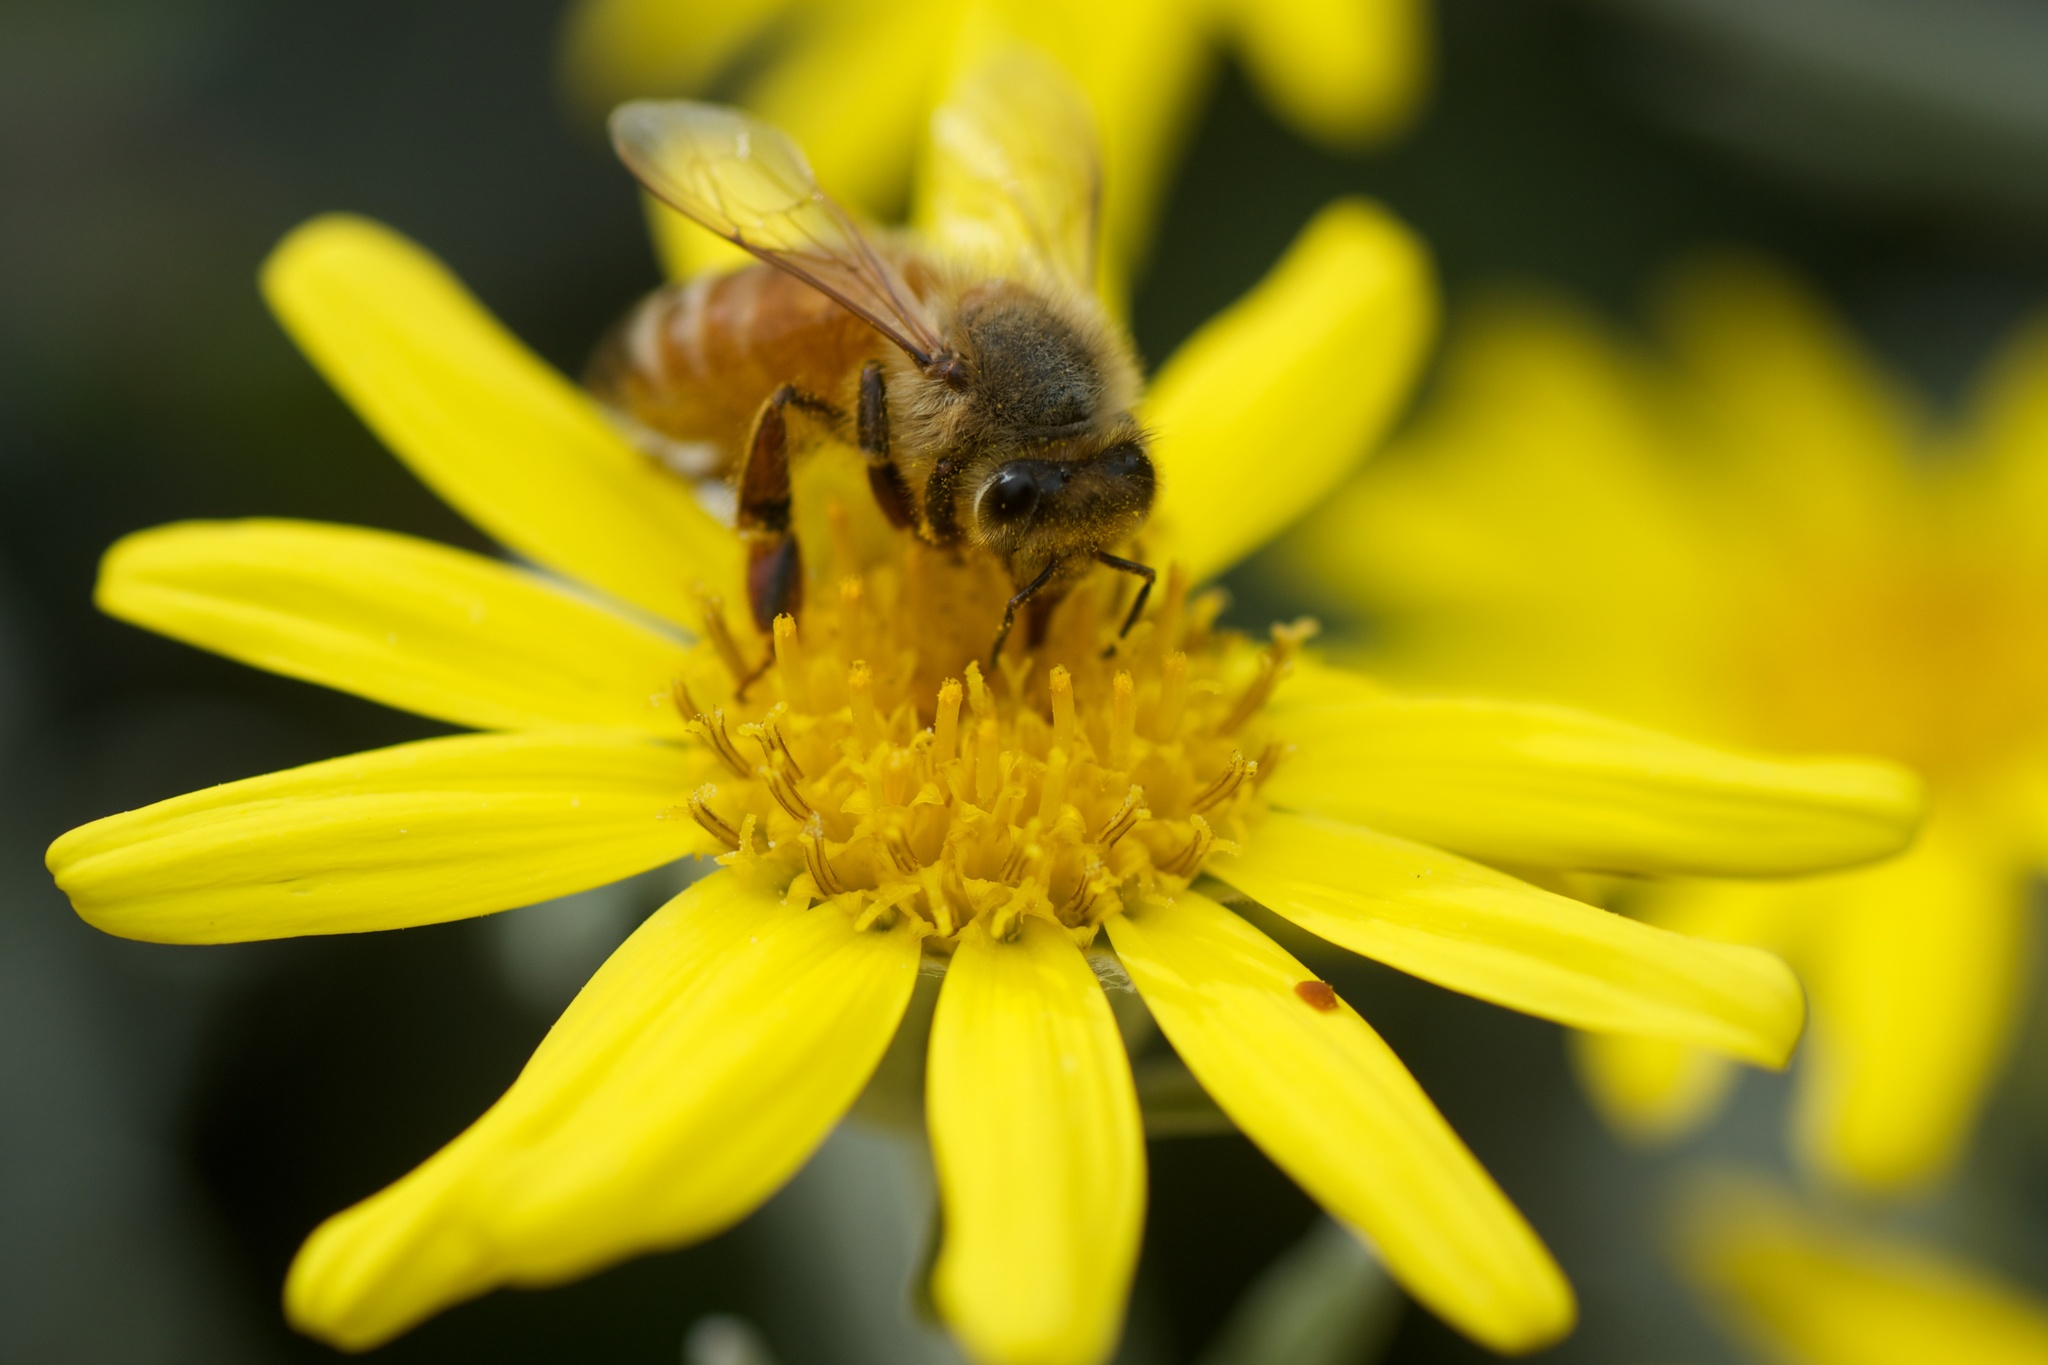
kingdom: Animalia
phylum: Arthropoda
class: Insecta
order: Hymenoptera
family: Apidae
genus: Apis
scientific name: Apis mellifera
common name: Honey bee
